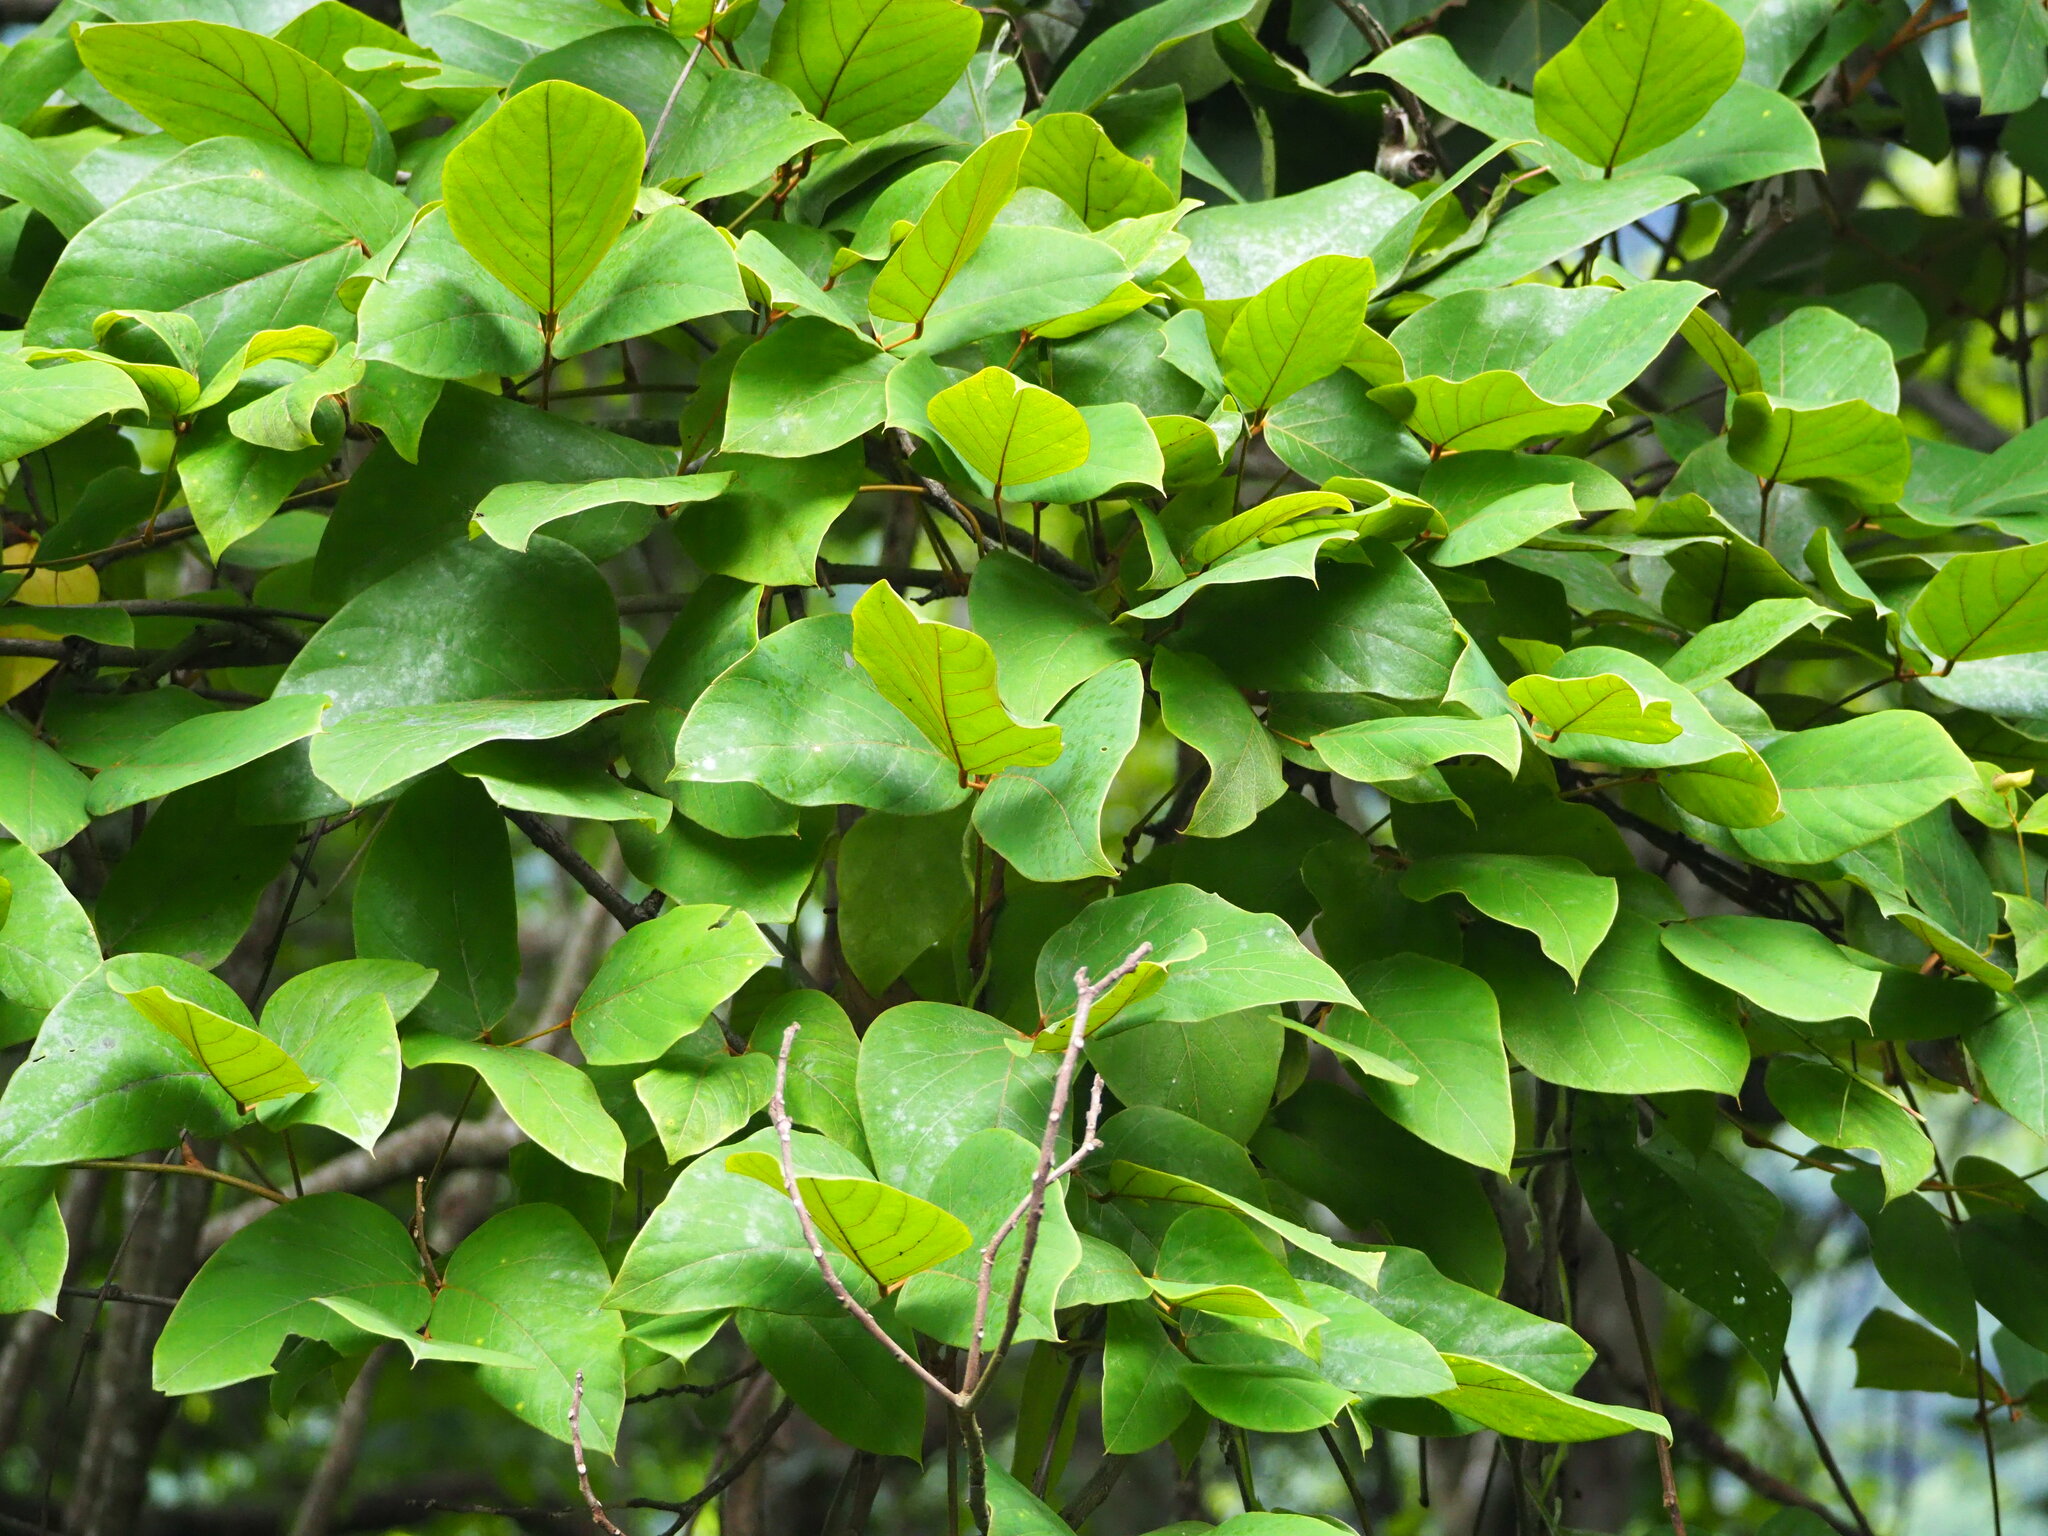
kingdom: Plantae
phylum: Tracheophyta
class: Magnoliopsida
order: Fabales
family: Fabaceae
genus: Mucuna
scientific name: Mucuna macrocarpa
